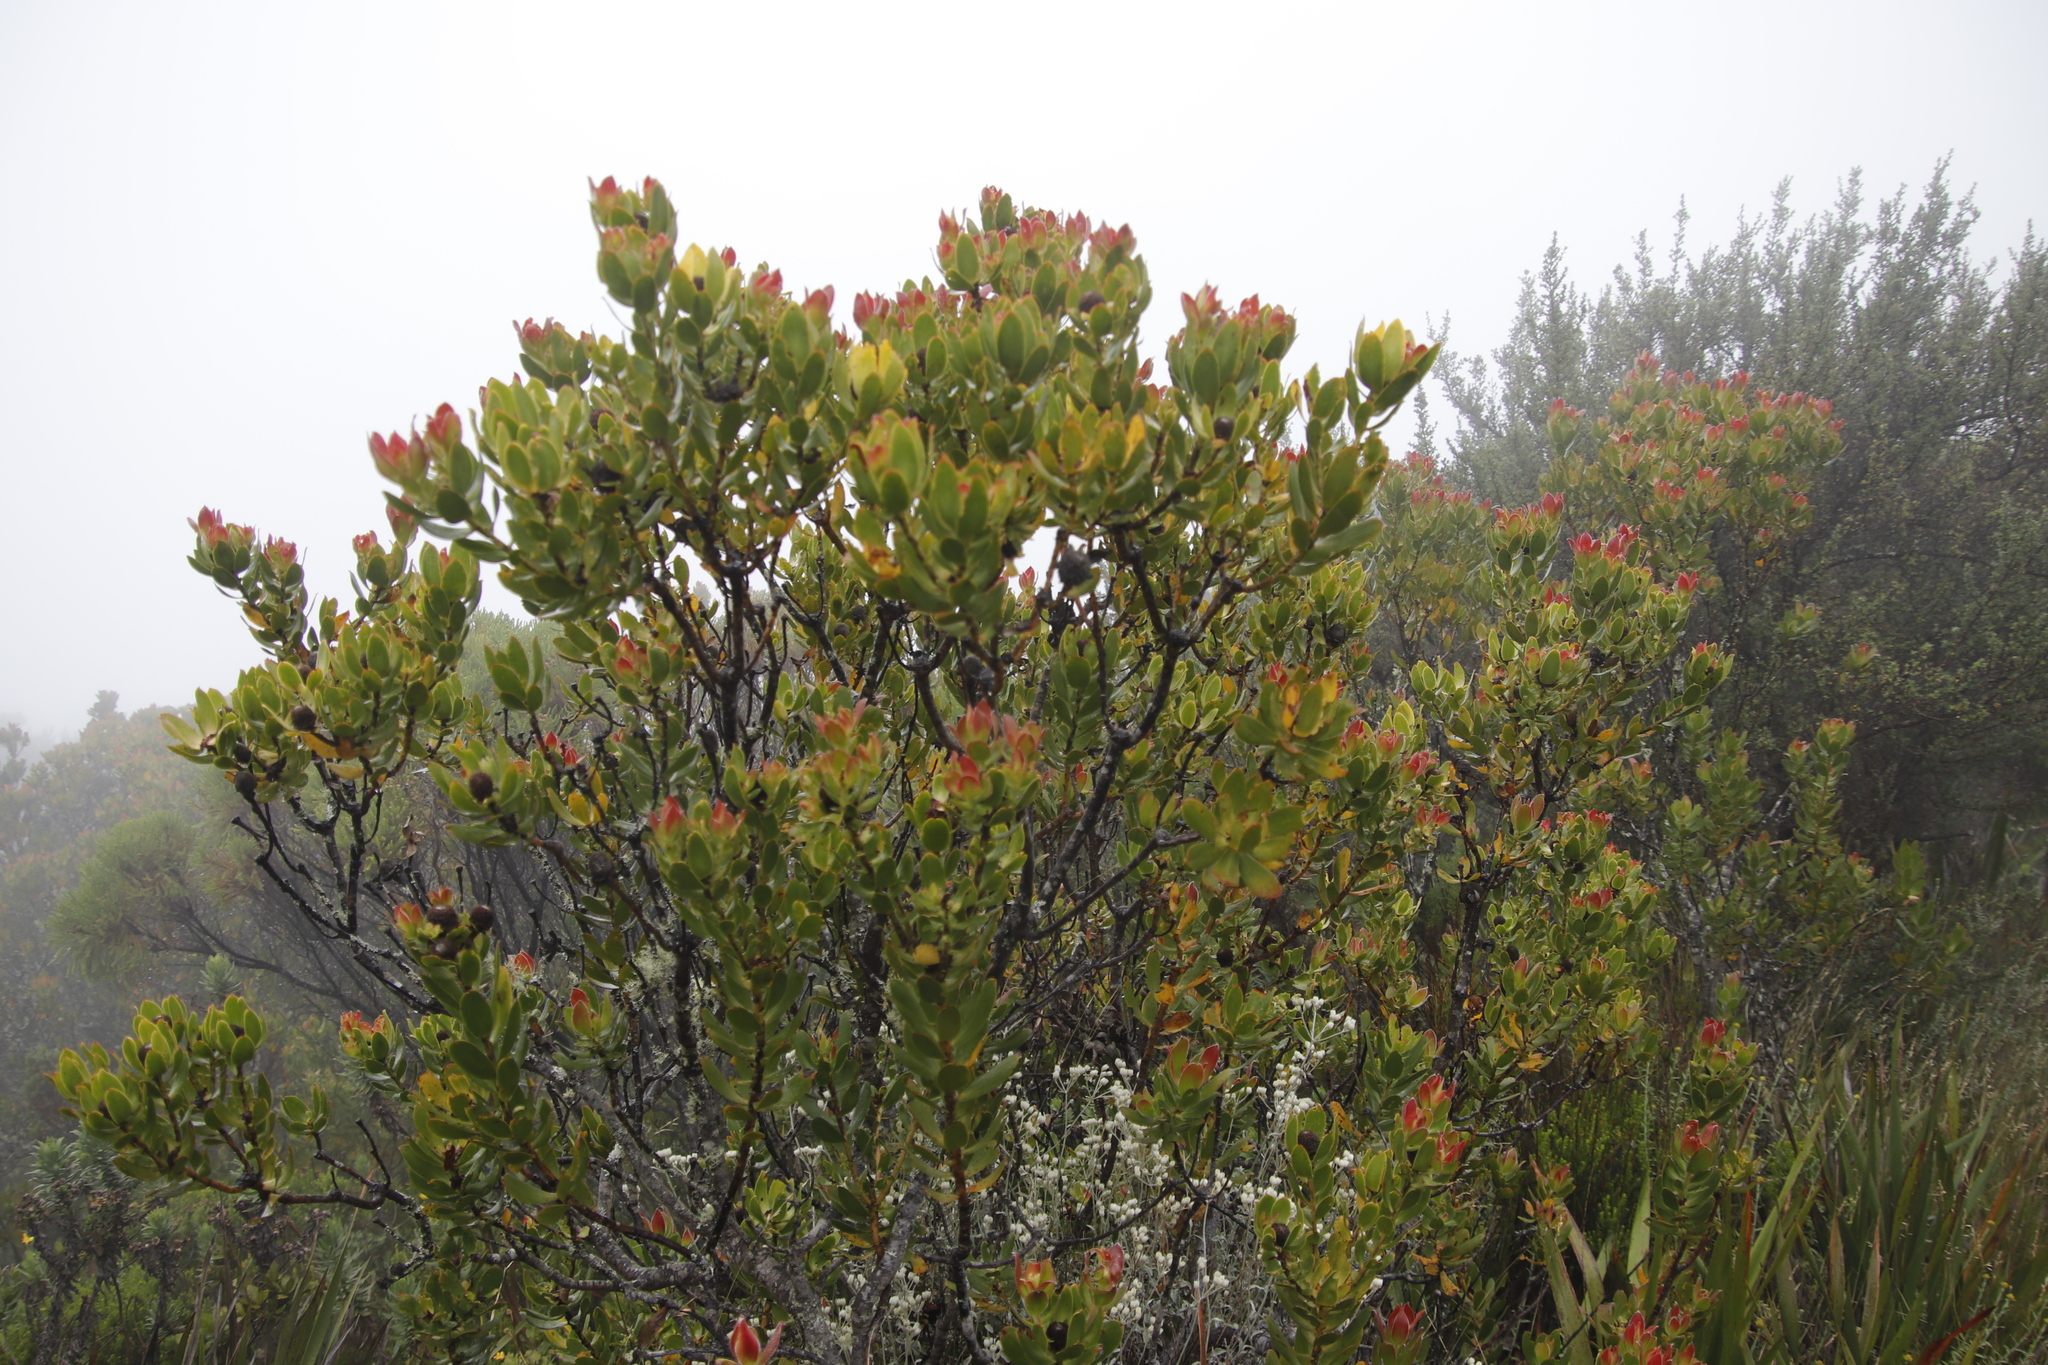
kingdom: Plantae
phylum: Tracheophyta
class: Magnoliopsida
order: Proteales
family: Proteaceae
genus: Leucadendron
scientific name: Leucadendron strobilinum
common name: Mountain rose
